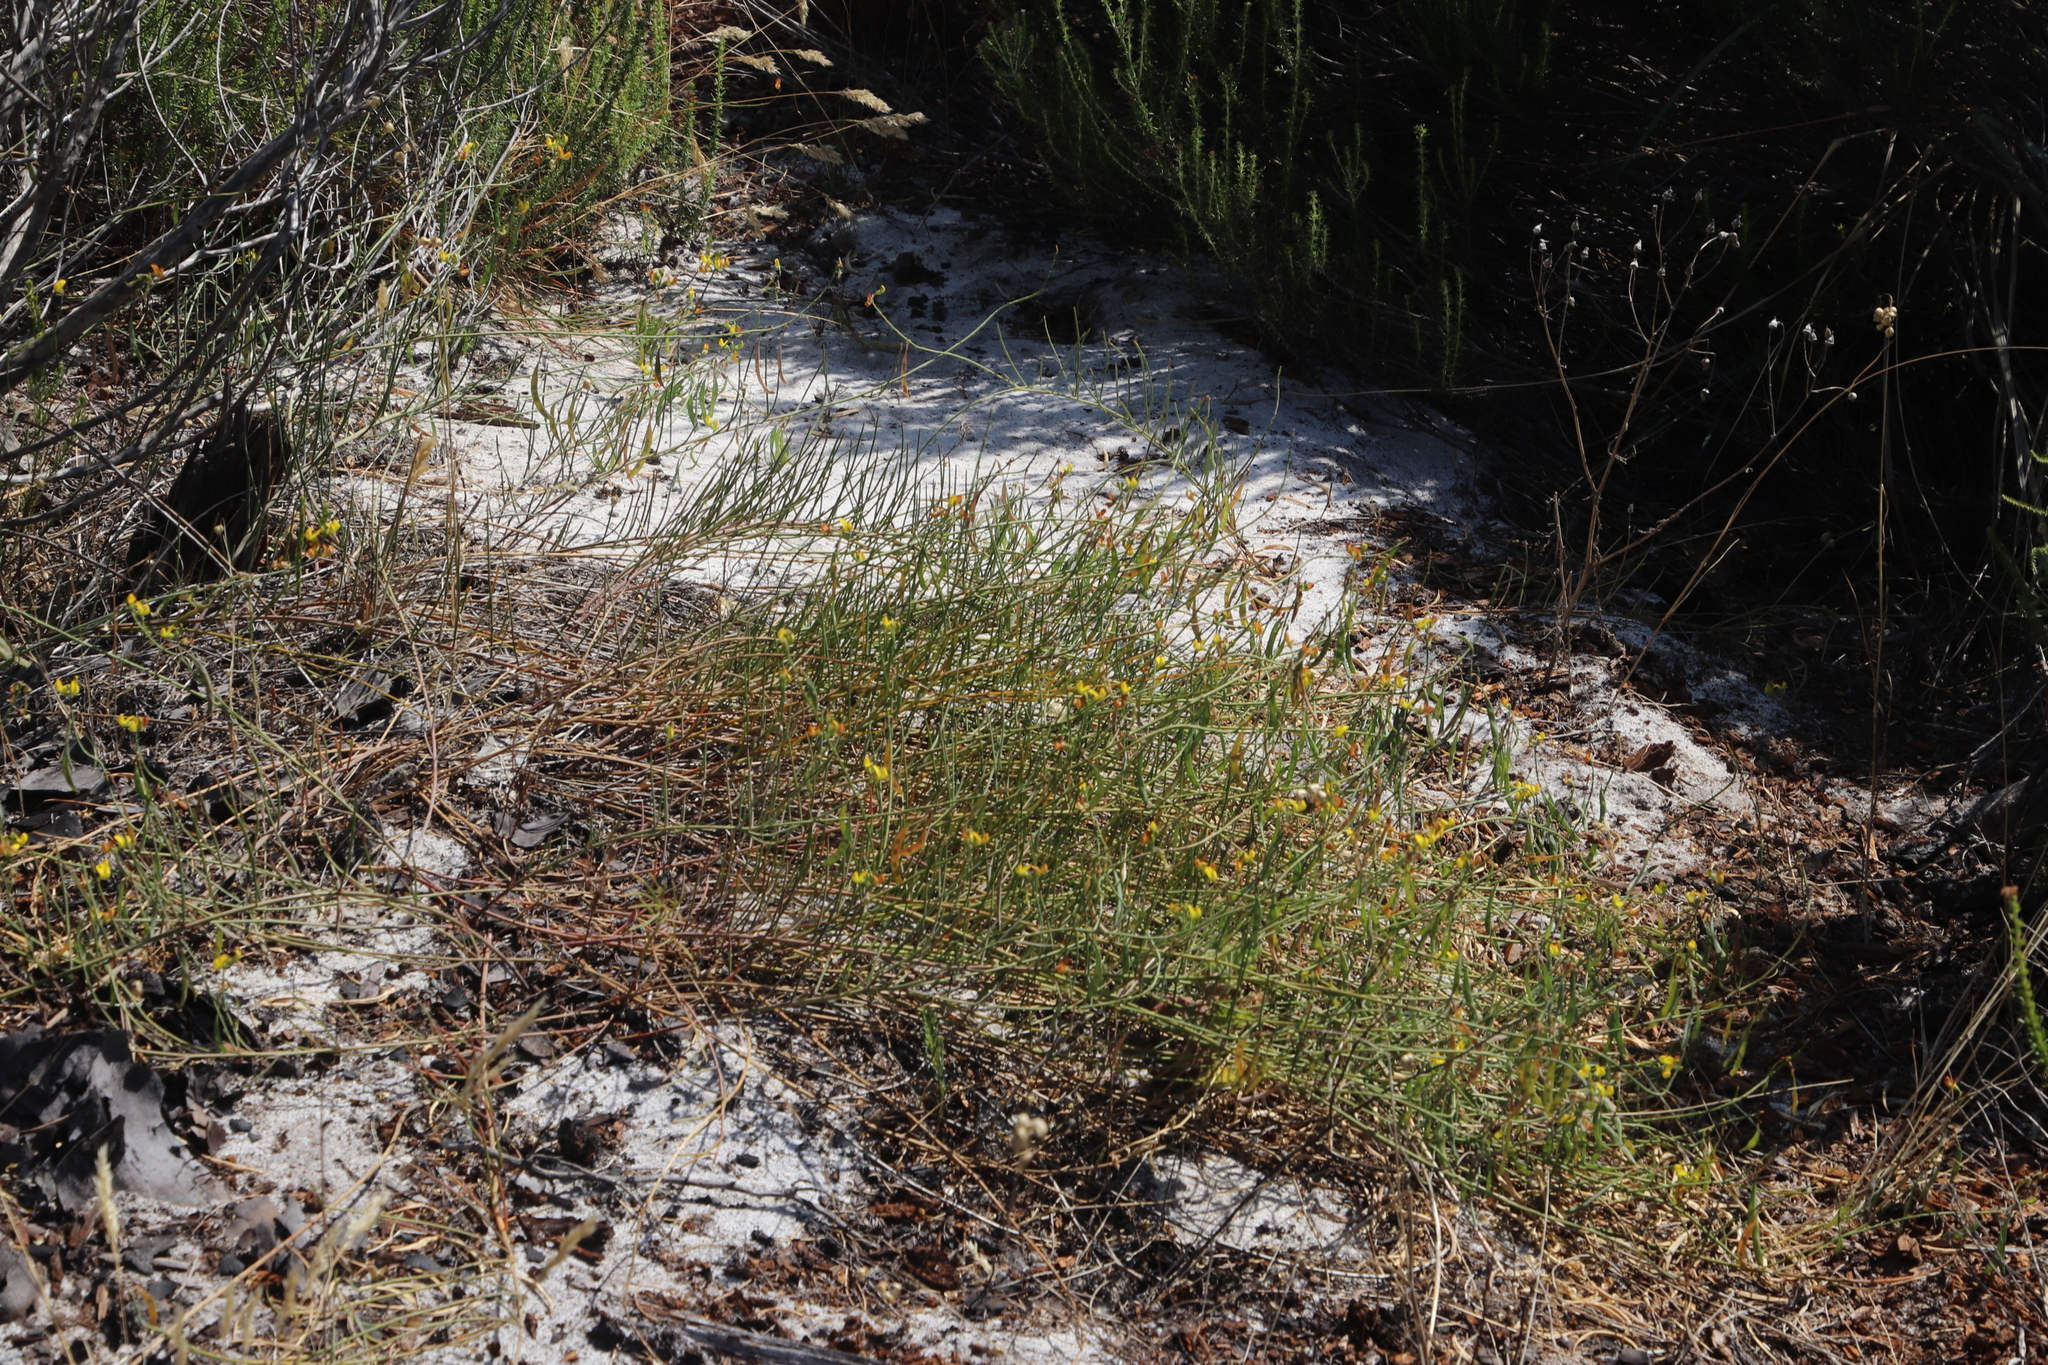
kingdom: Plantae
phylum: Tracheophyta
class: Magnoliopsida
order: Fabales
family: Fabaceae
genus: Lebeckia
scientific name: Lebeckia contaminata
